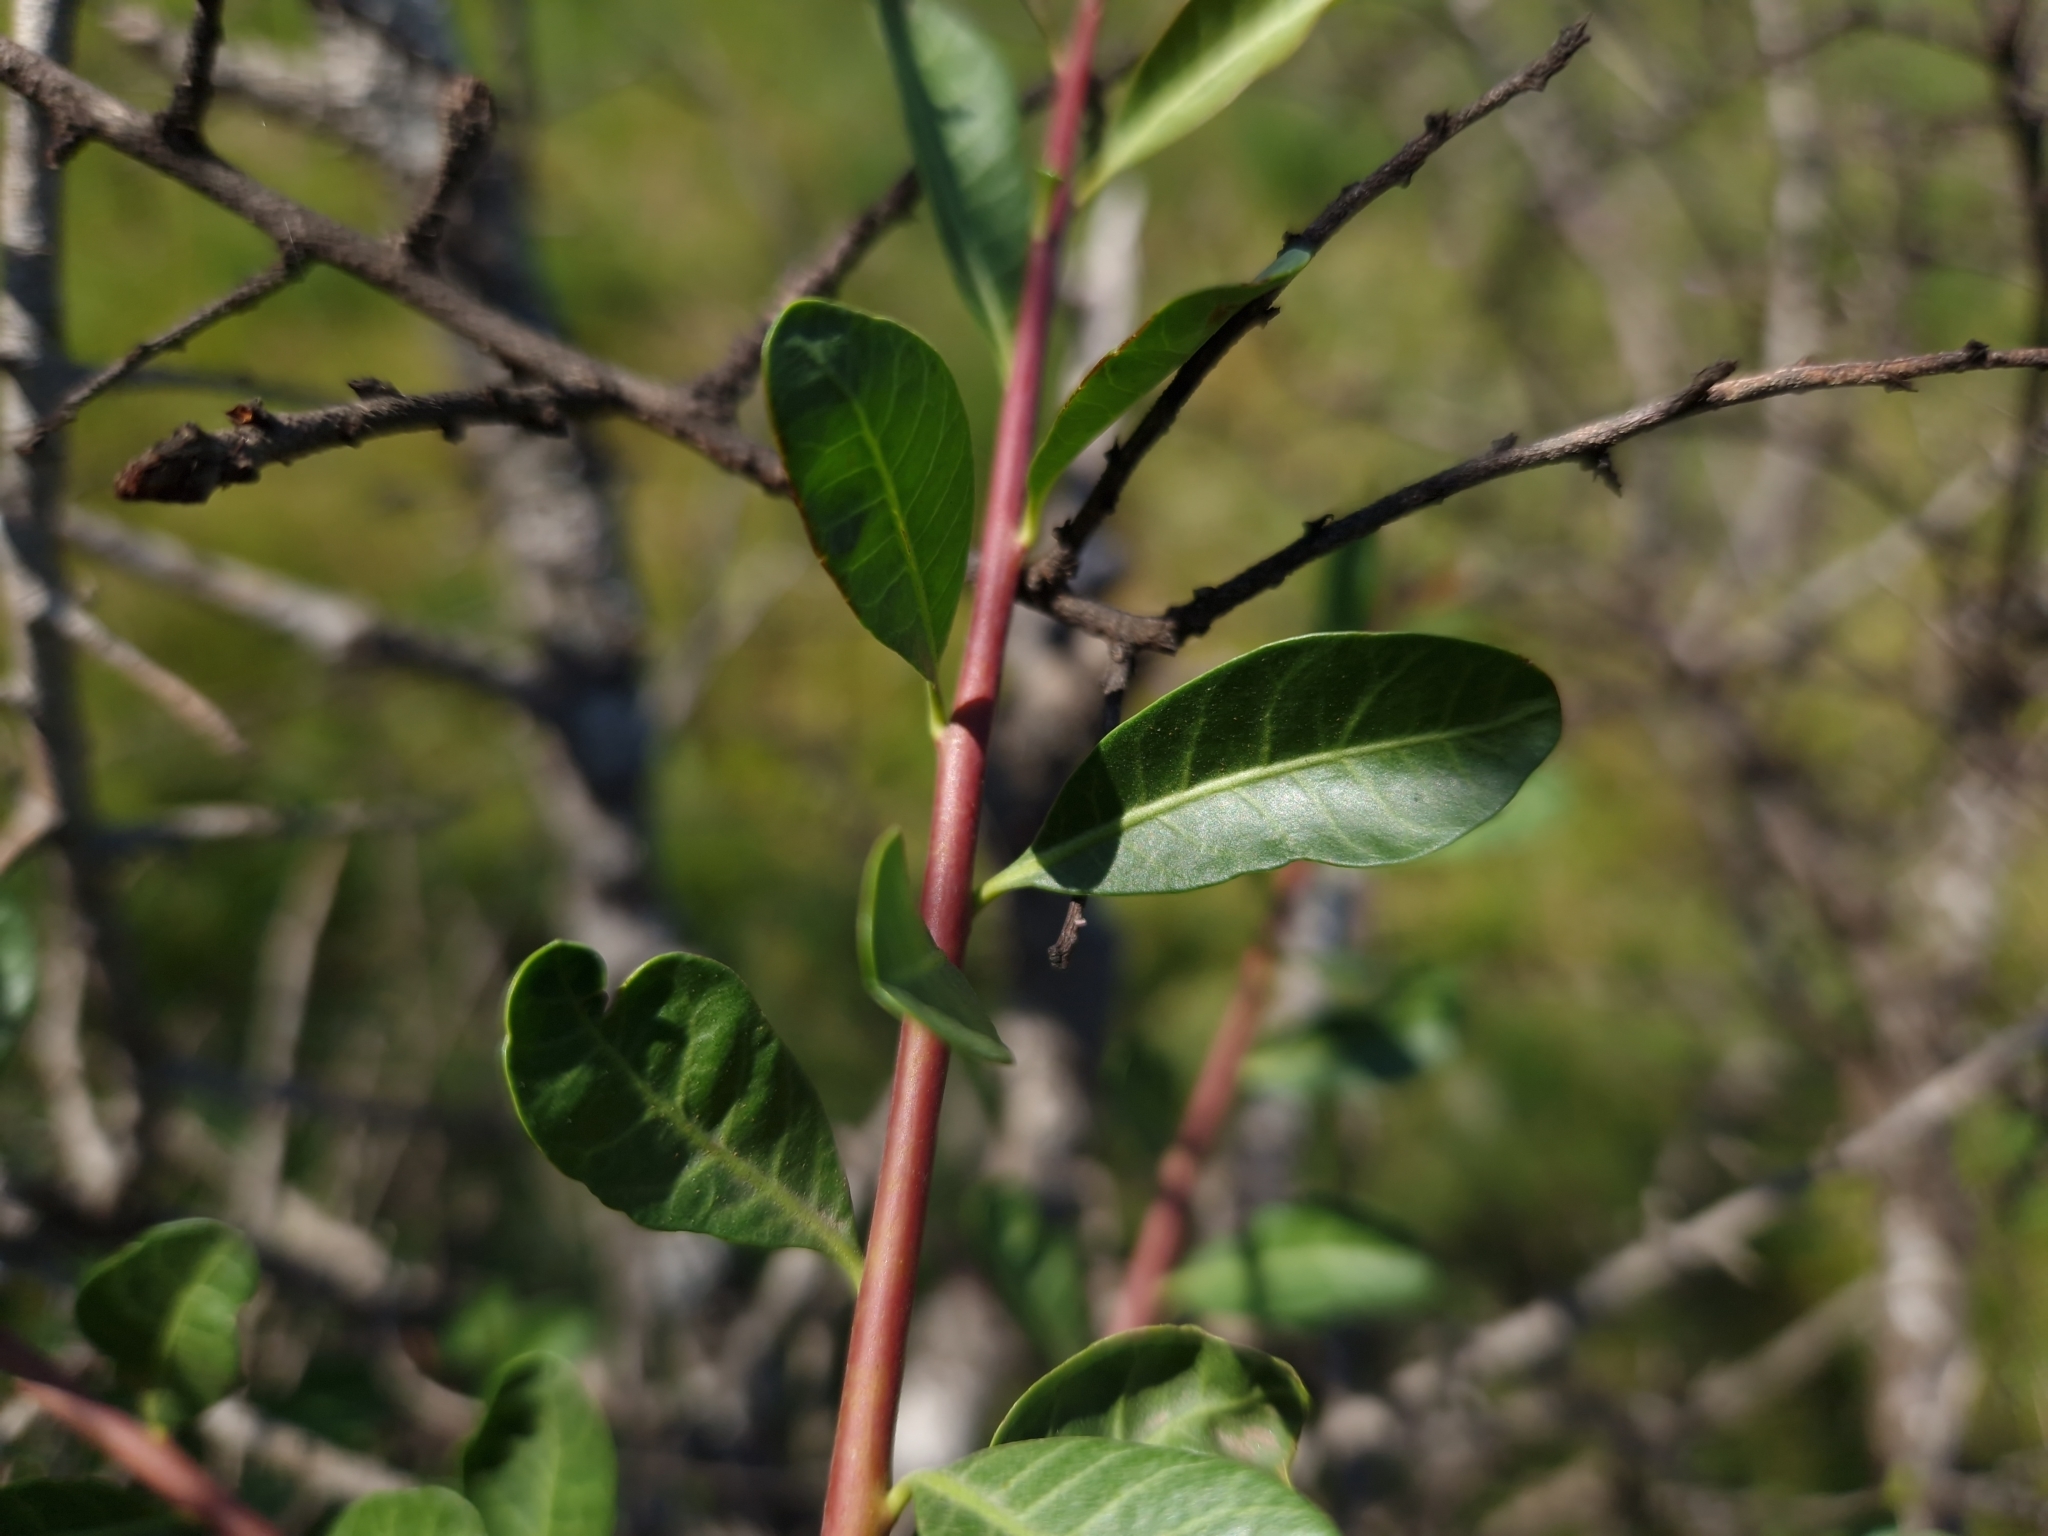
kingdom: Plantae
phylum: Tracheophyta
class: Magnoliopsida
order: Sapindales
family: Anacardiaceae
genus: Schinus
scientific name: Schinus longifolia
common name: Longleaf peppertree
